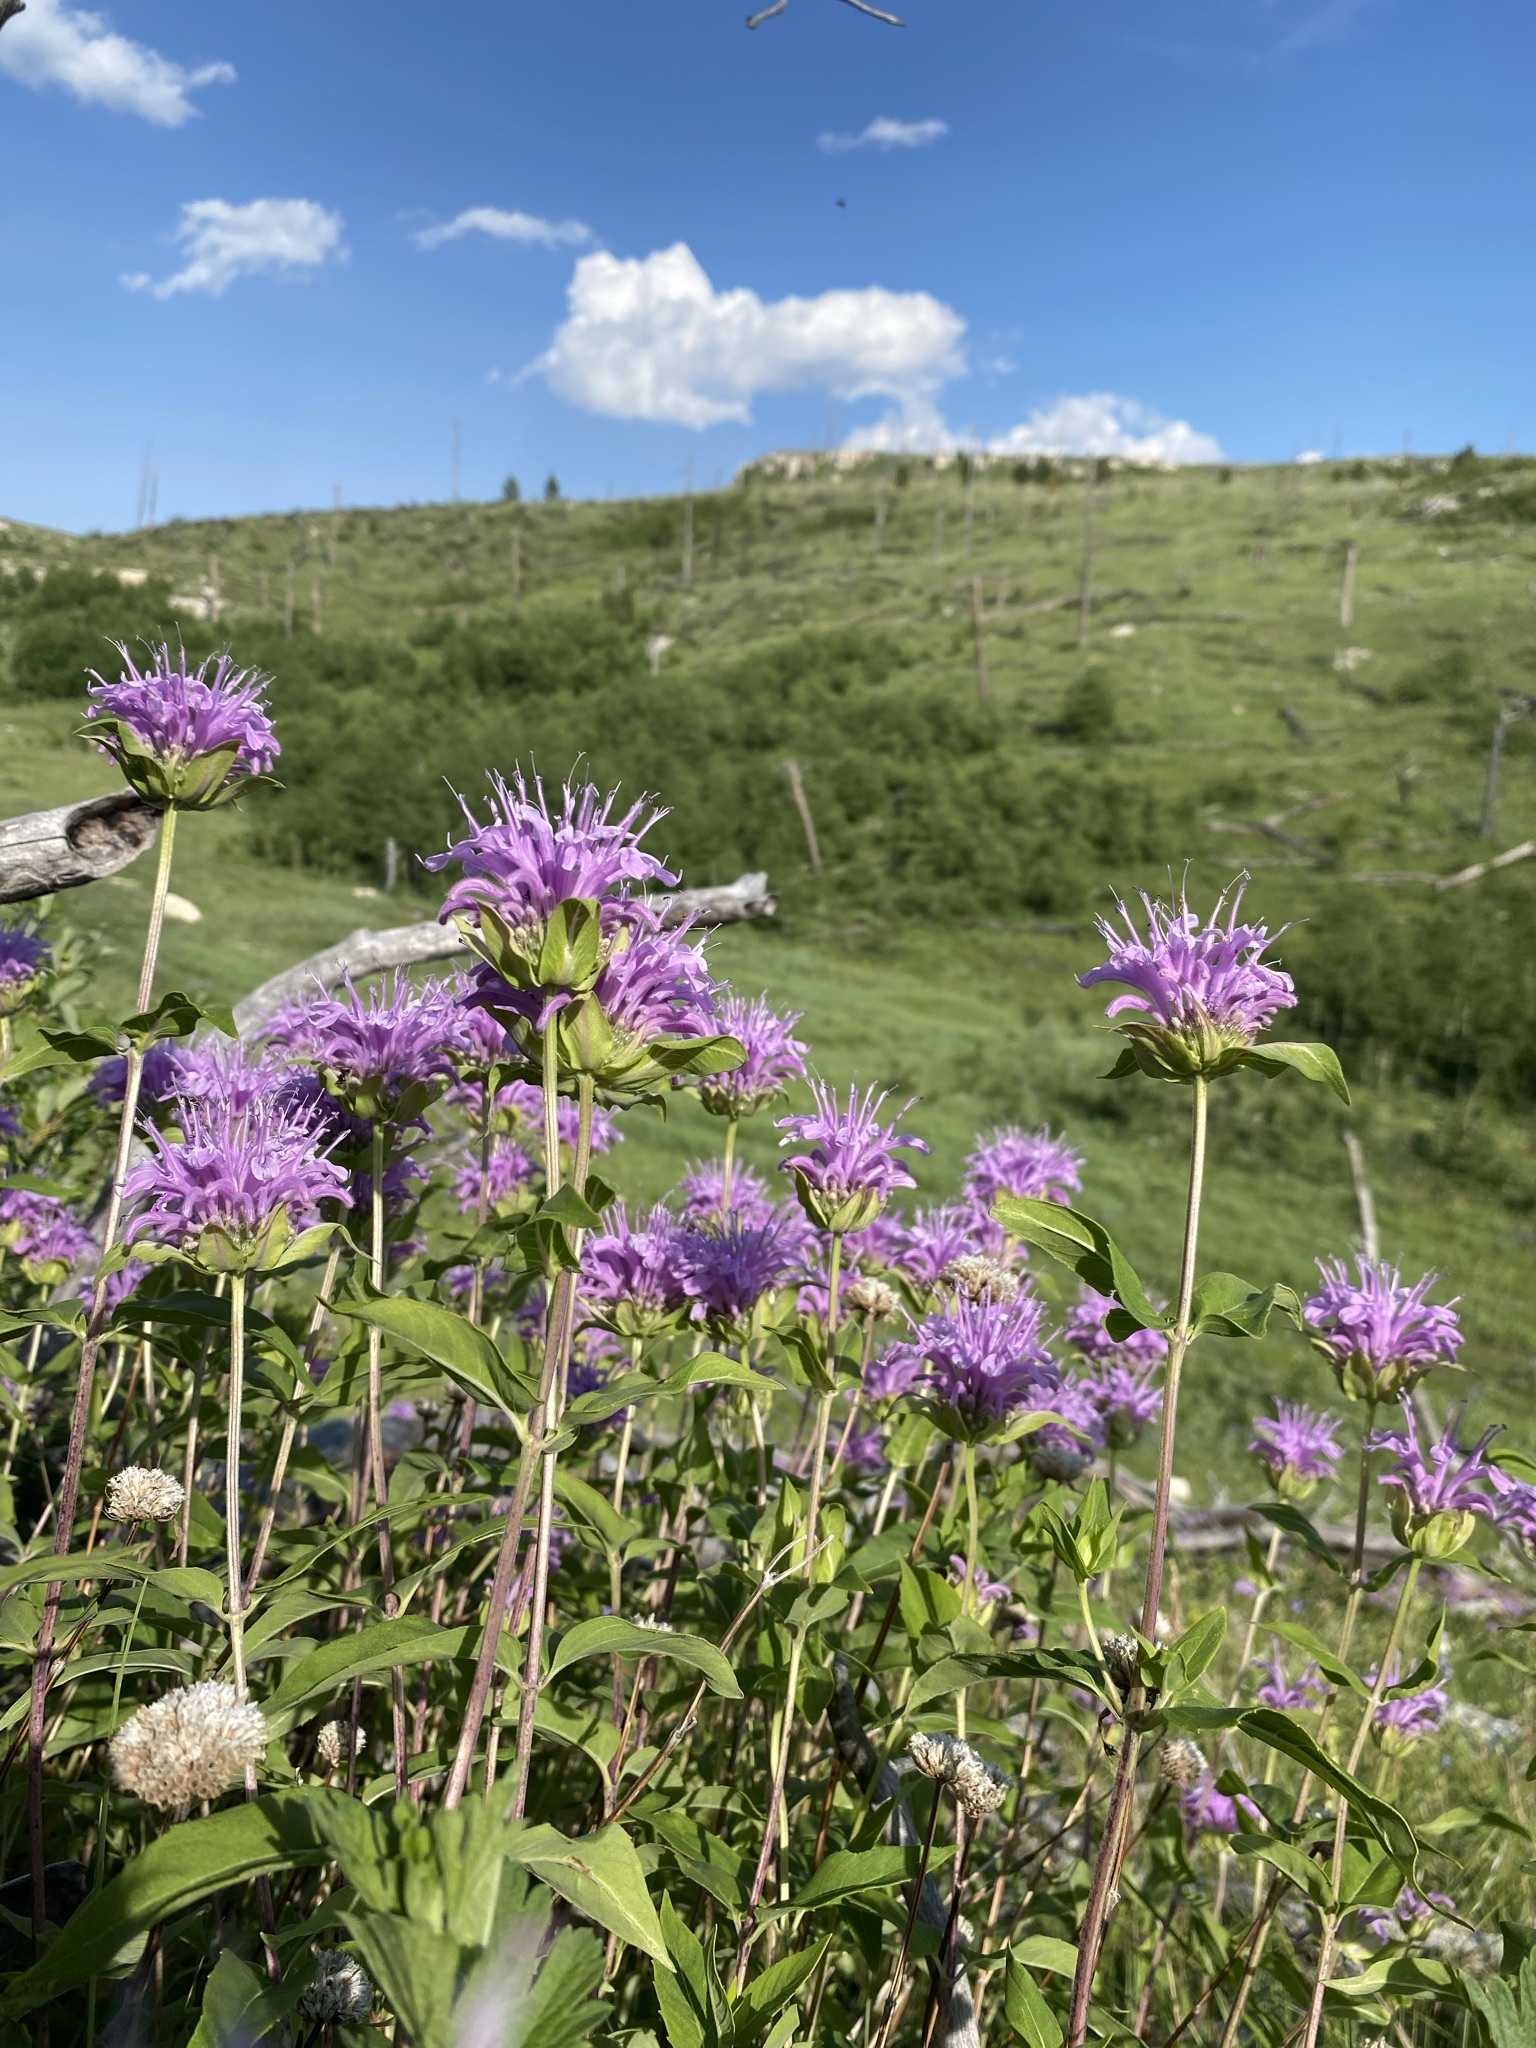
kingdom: Plantae
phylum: Tracheophyta
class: Magnoliopsida
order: Lamiales
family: Lamiaceae
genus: Monarda
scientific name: Monarda fistulosa
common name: Purple beebalm
